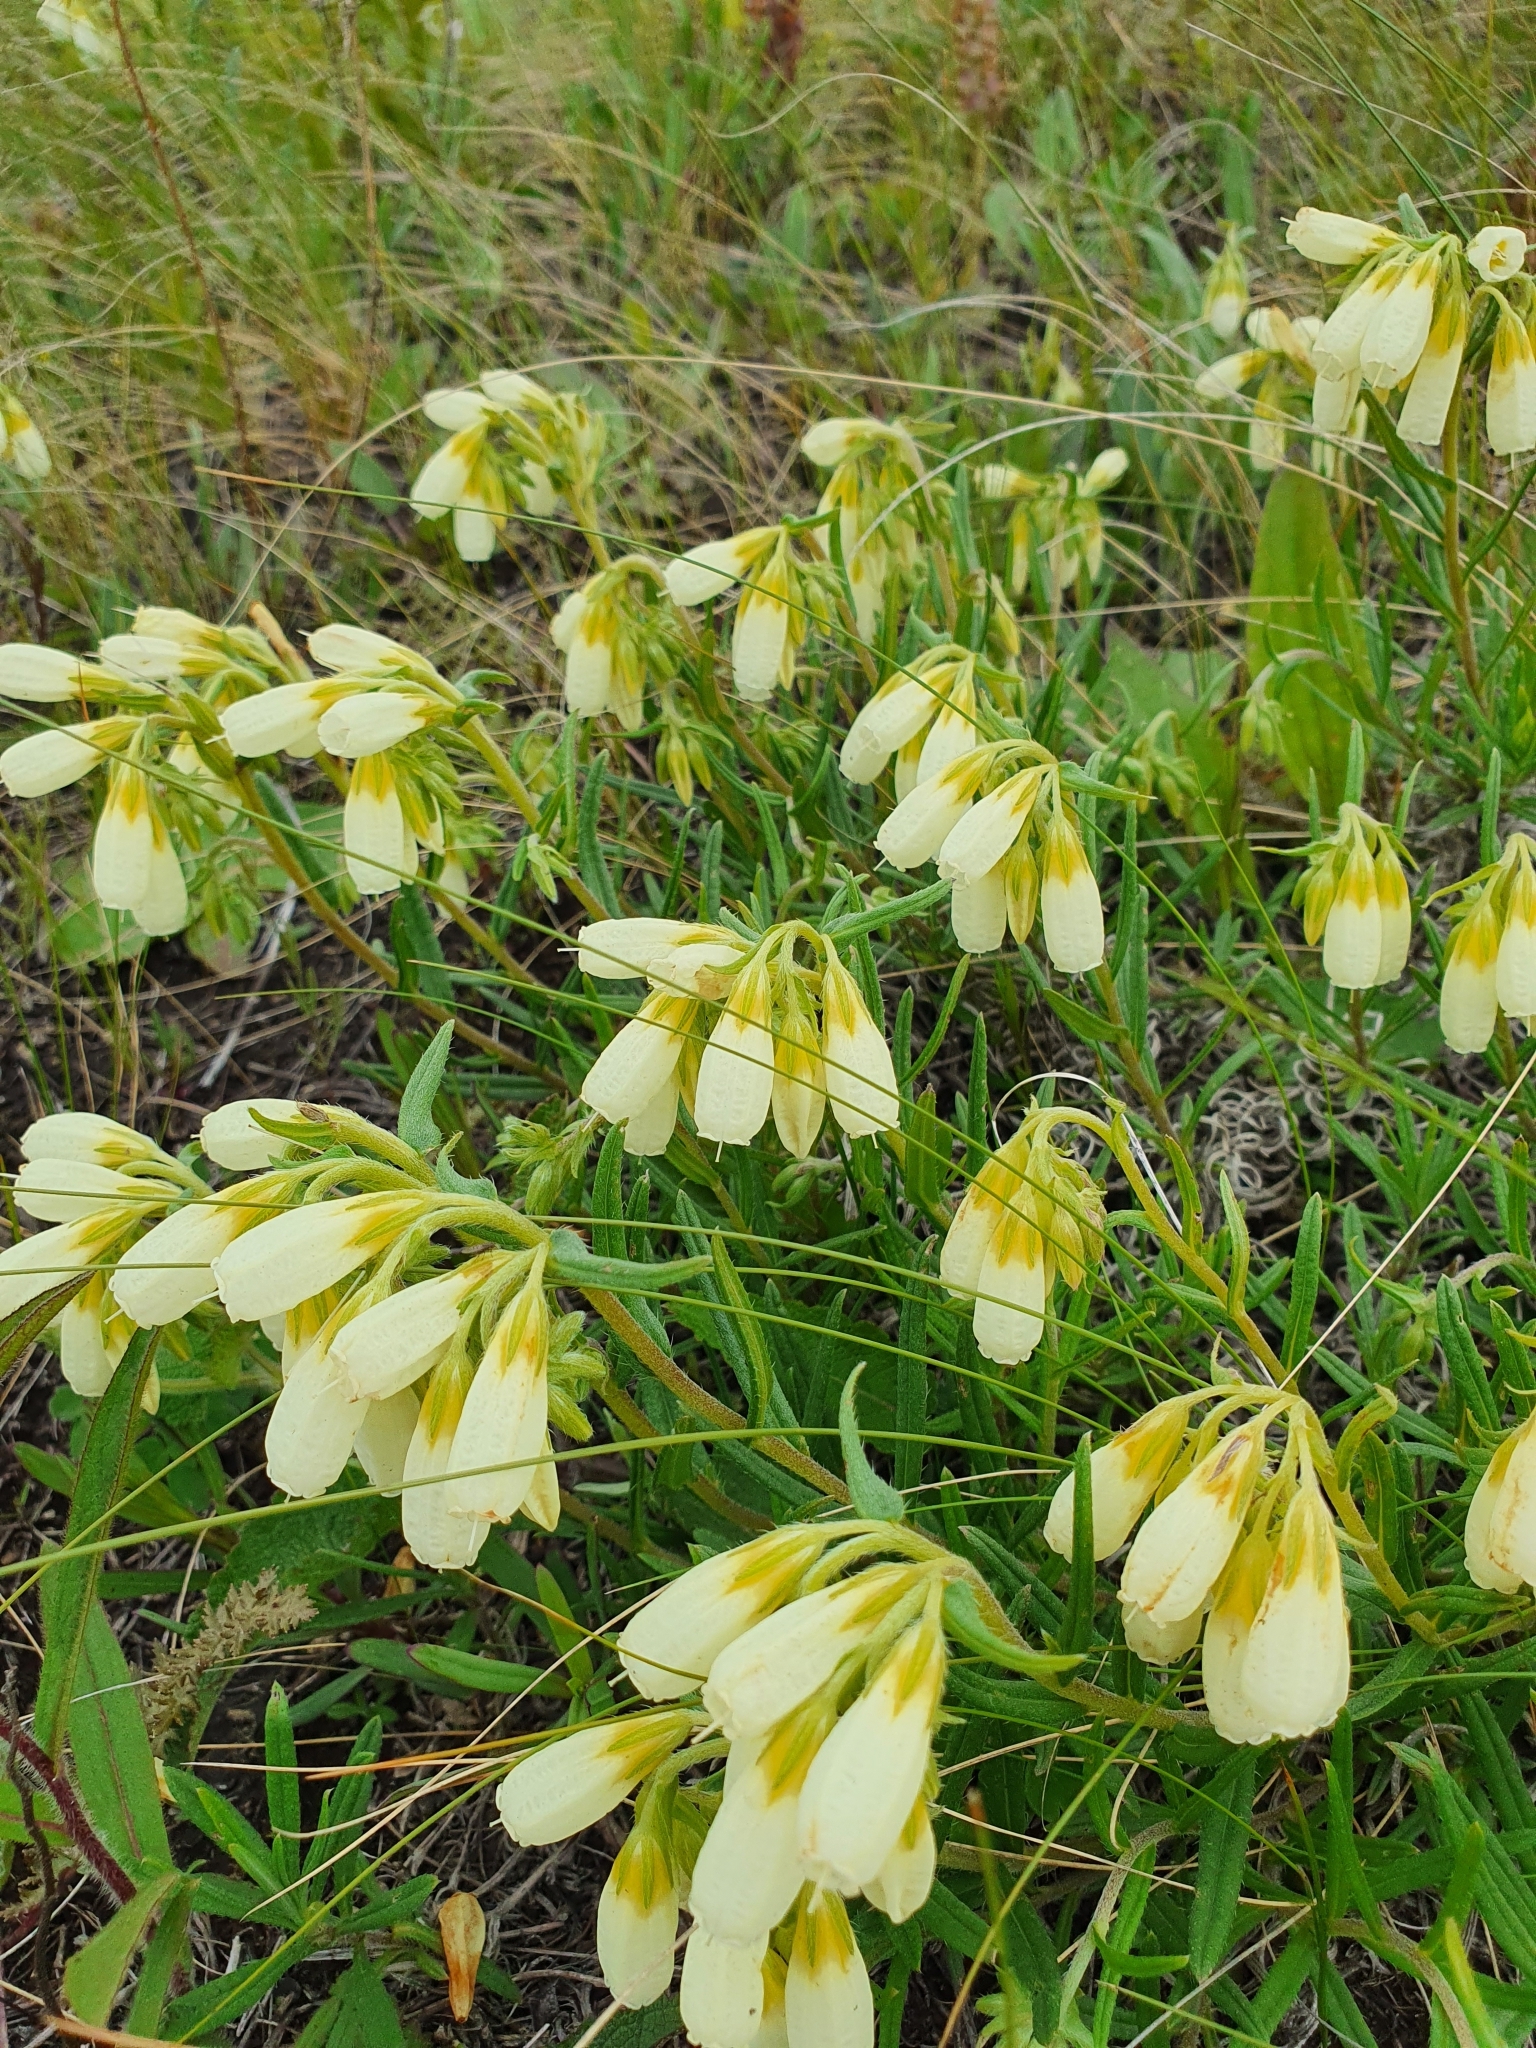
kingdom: Plantae
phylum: Tracheophyta
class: Magnoliopsida
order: Boraginales
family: Boraginaceae
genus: Onosma
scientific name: Onosma simplicissima
